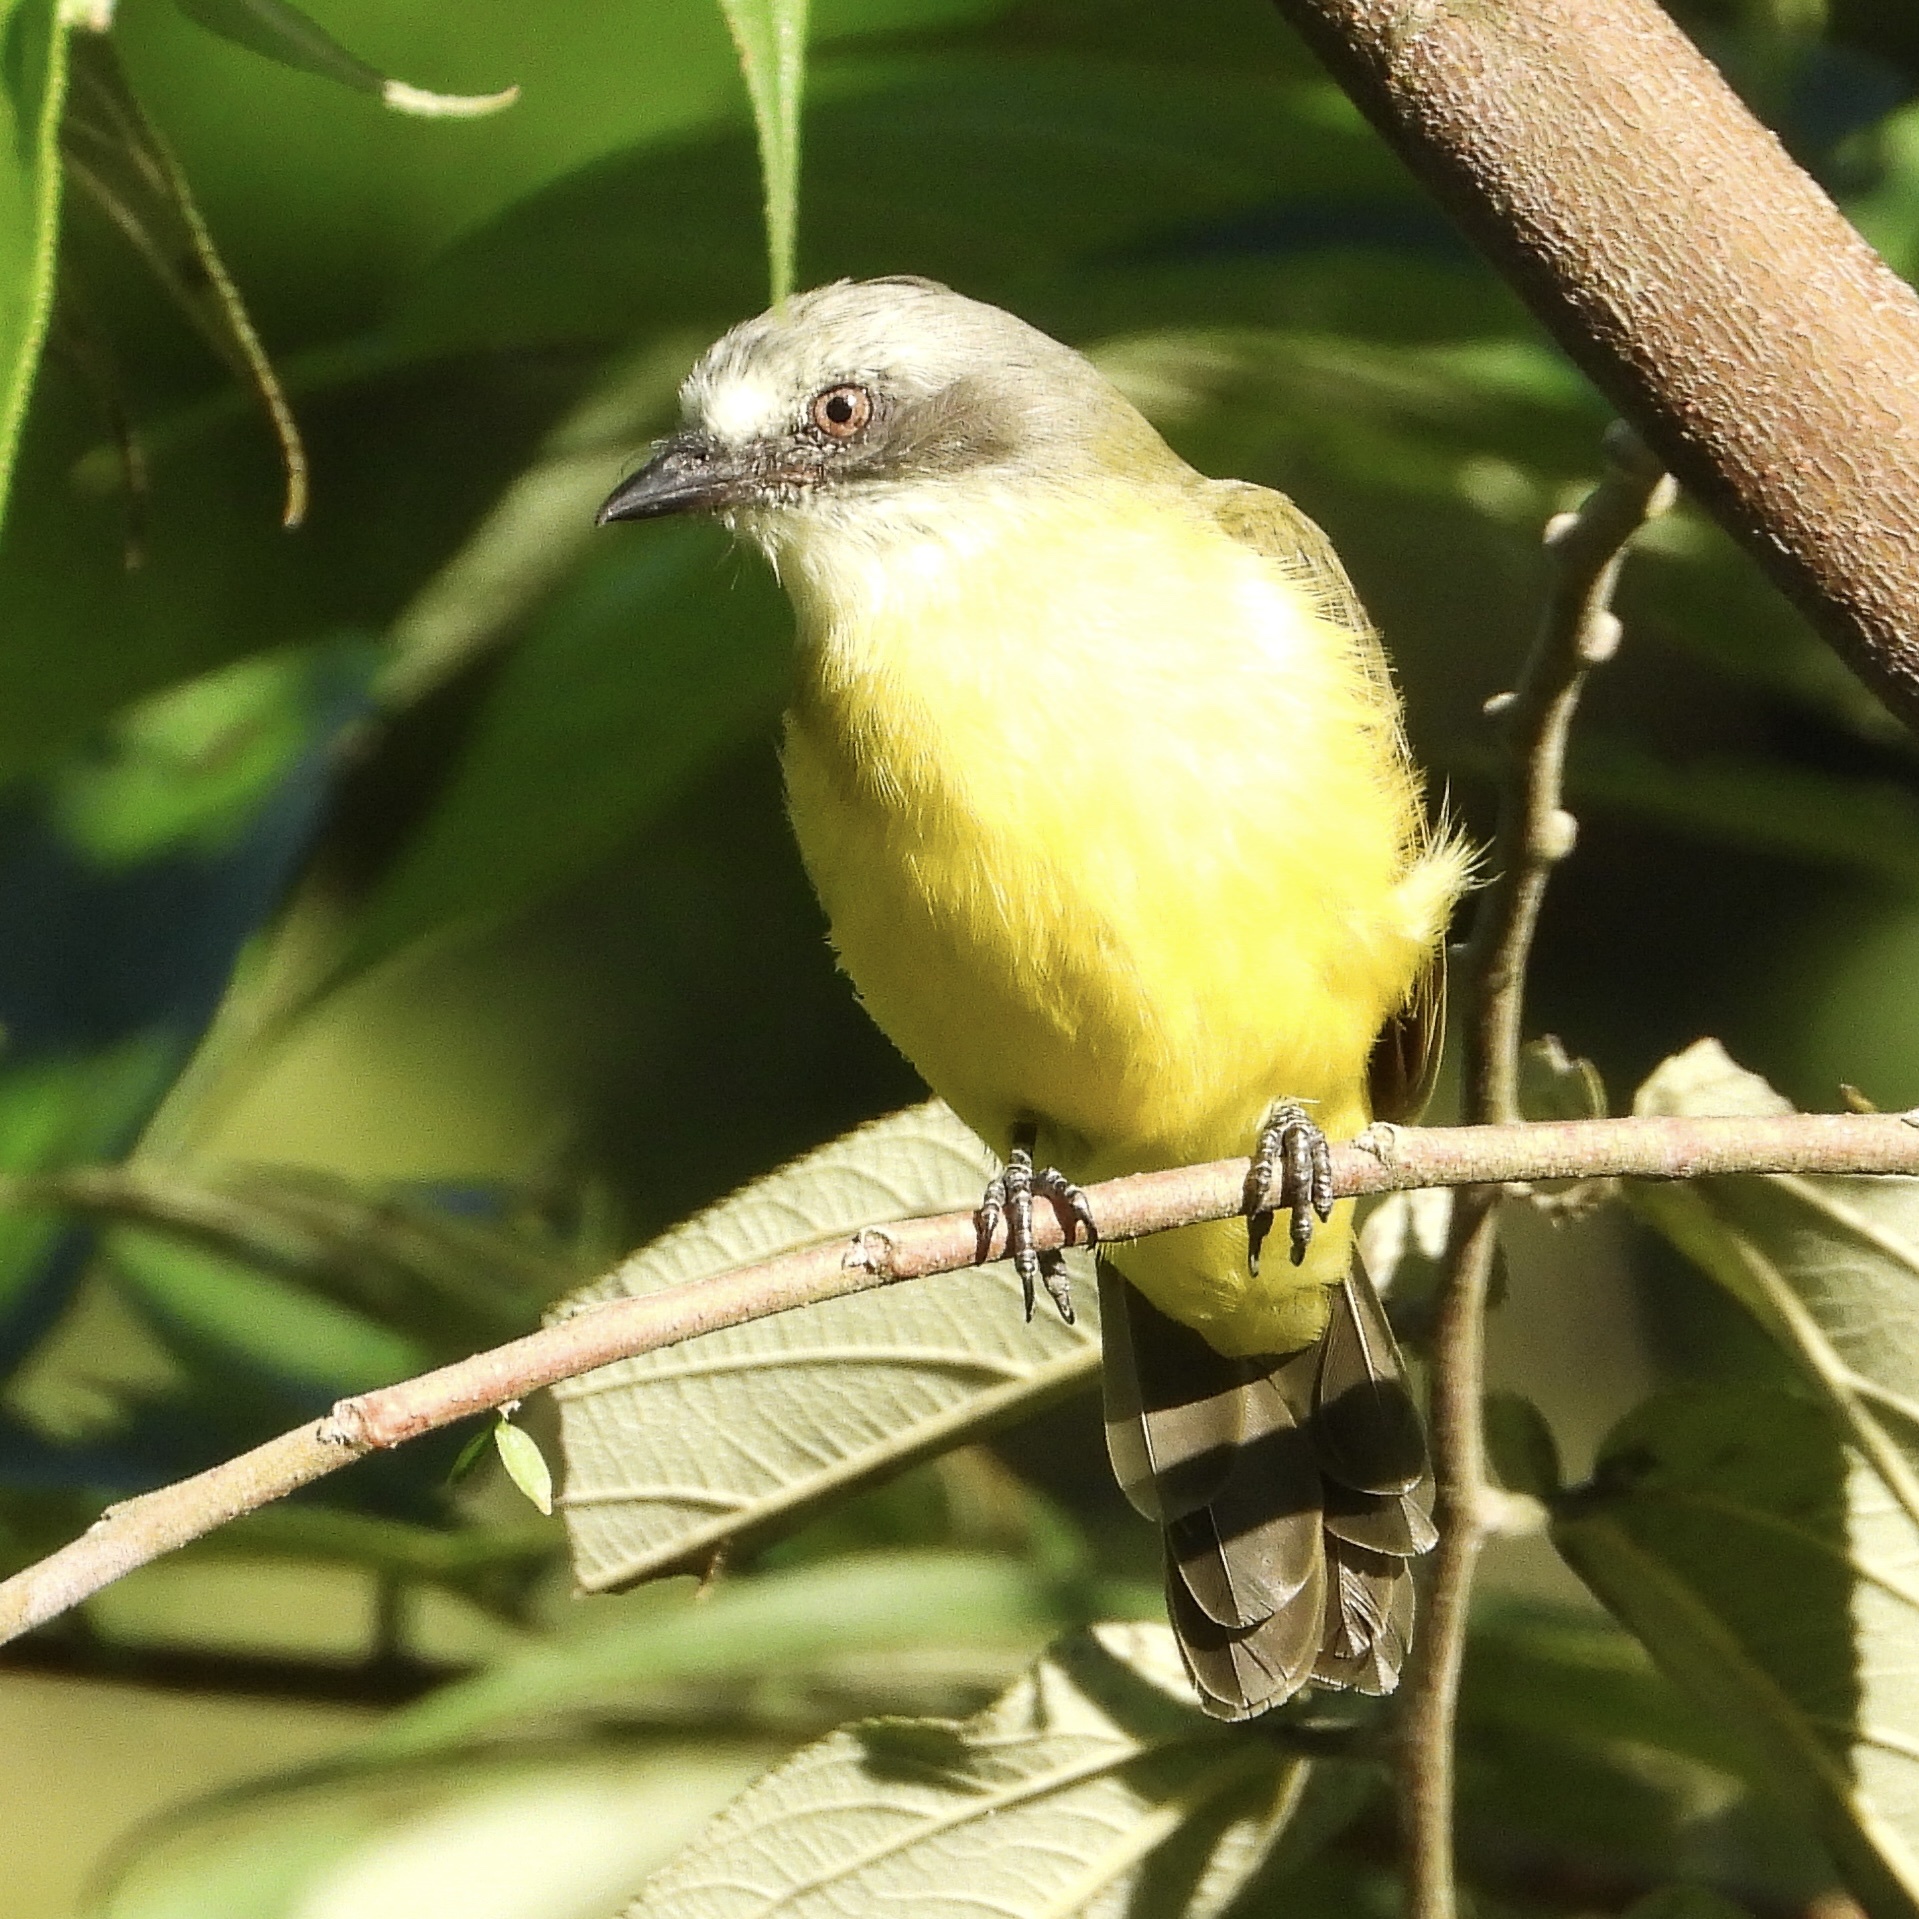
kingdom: Animalia
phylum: Chordata
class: Aves
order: Passeriformes
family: Tyrannidae
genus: Myiozetetes
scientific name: Myiozetetes granadensis
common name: Gray-capped flycatcher
